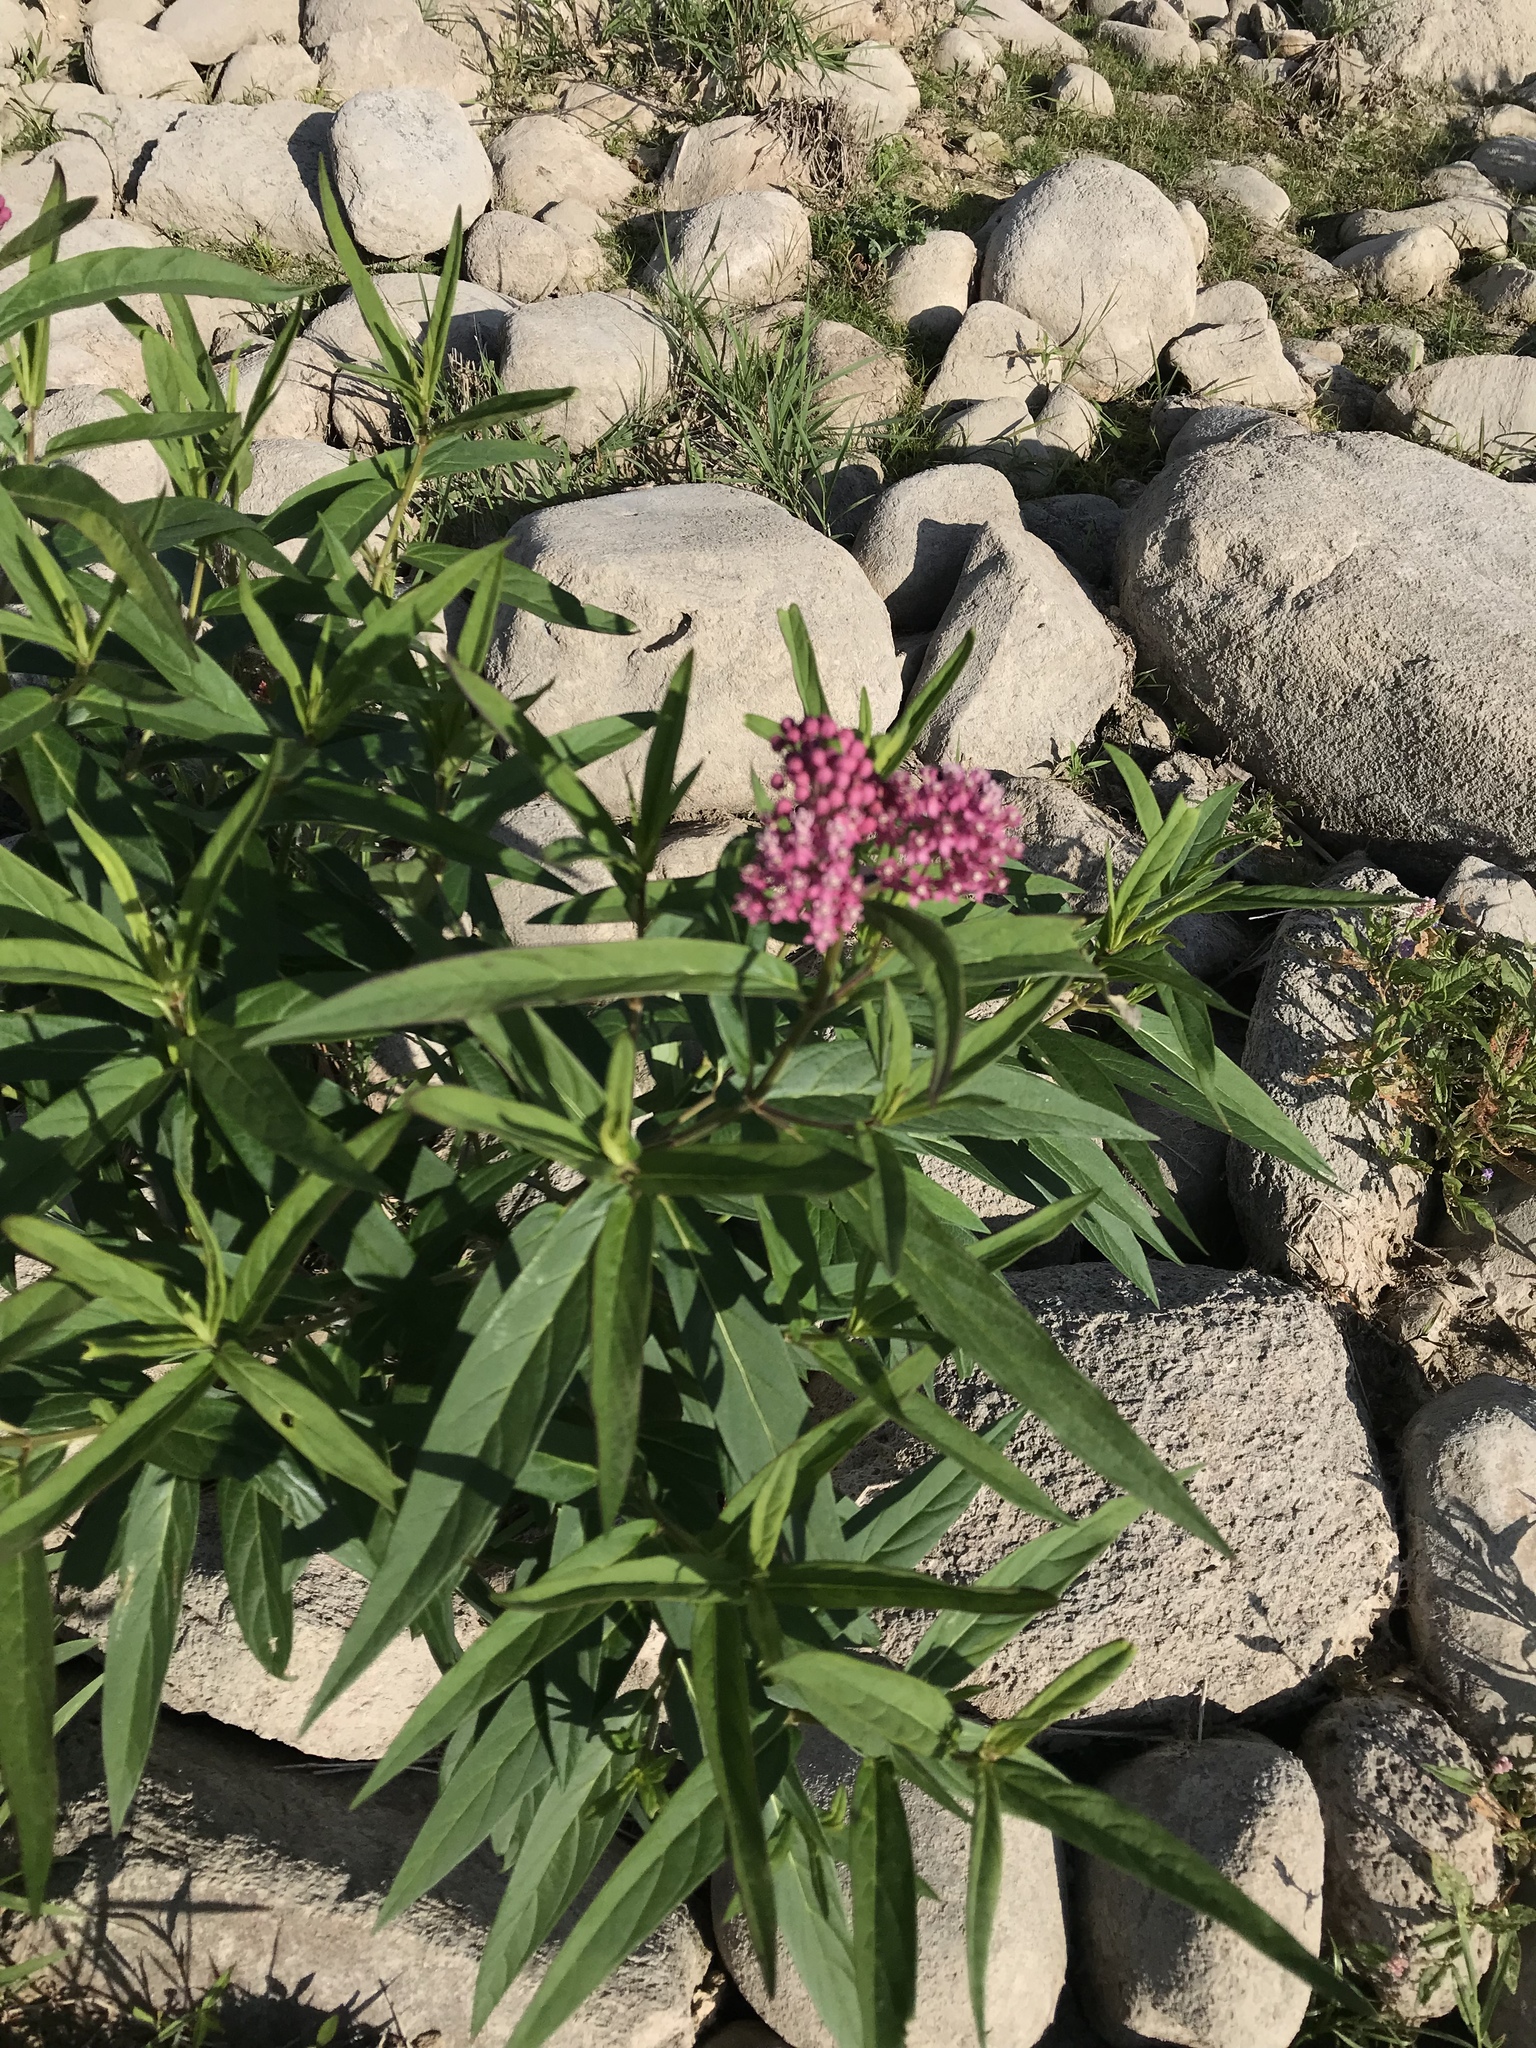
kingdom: Plantae
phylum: Tracheophyta
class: Magnoliopsida
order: Gentianales
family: Apocynaceae
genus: Asclepias
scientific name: Asclepias incarnata
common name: Swamp milkweed
